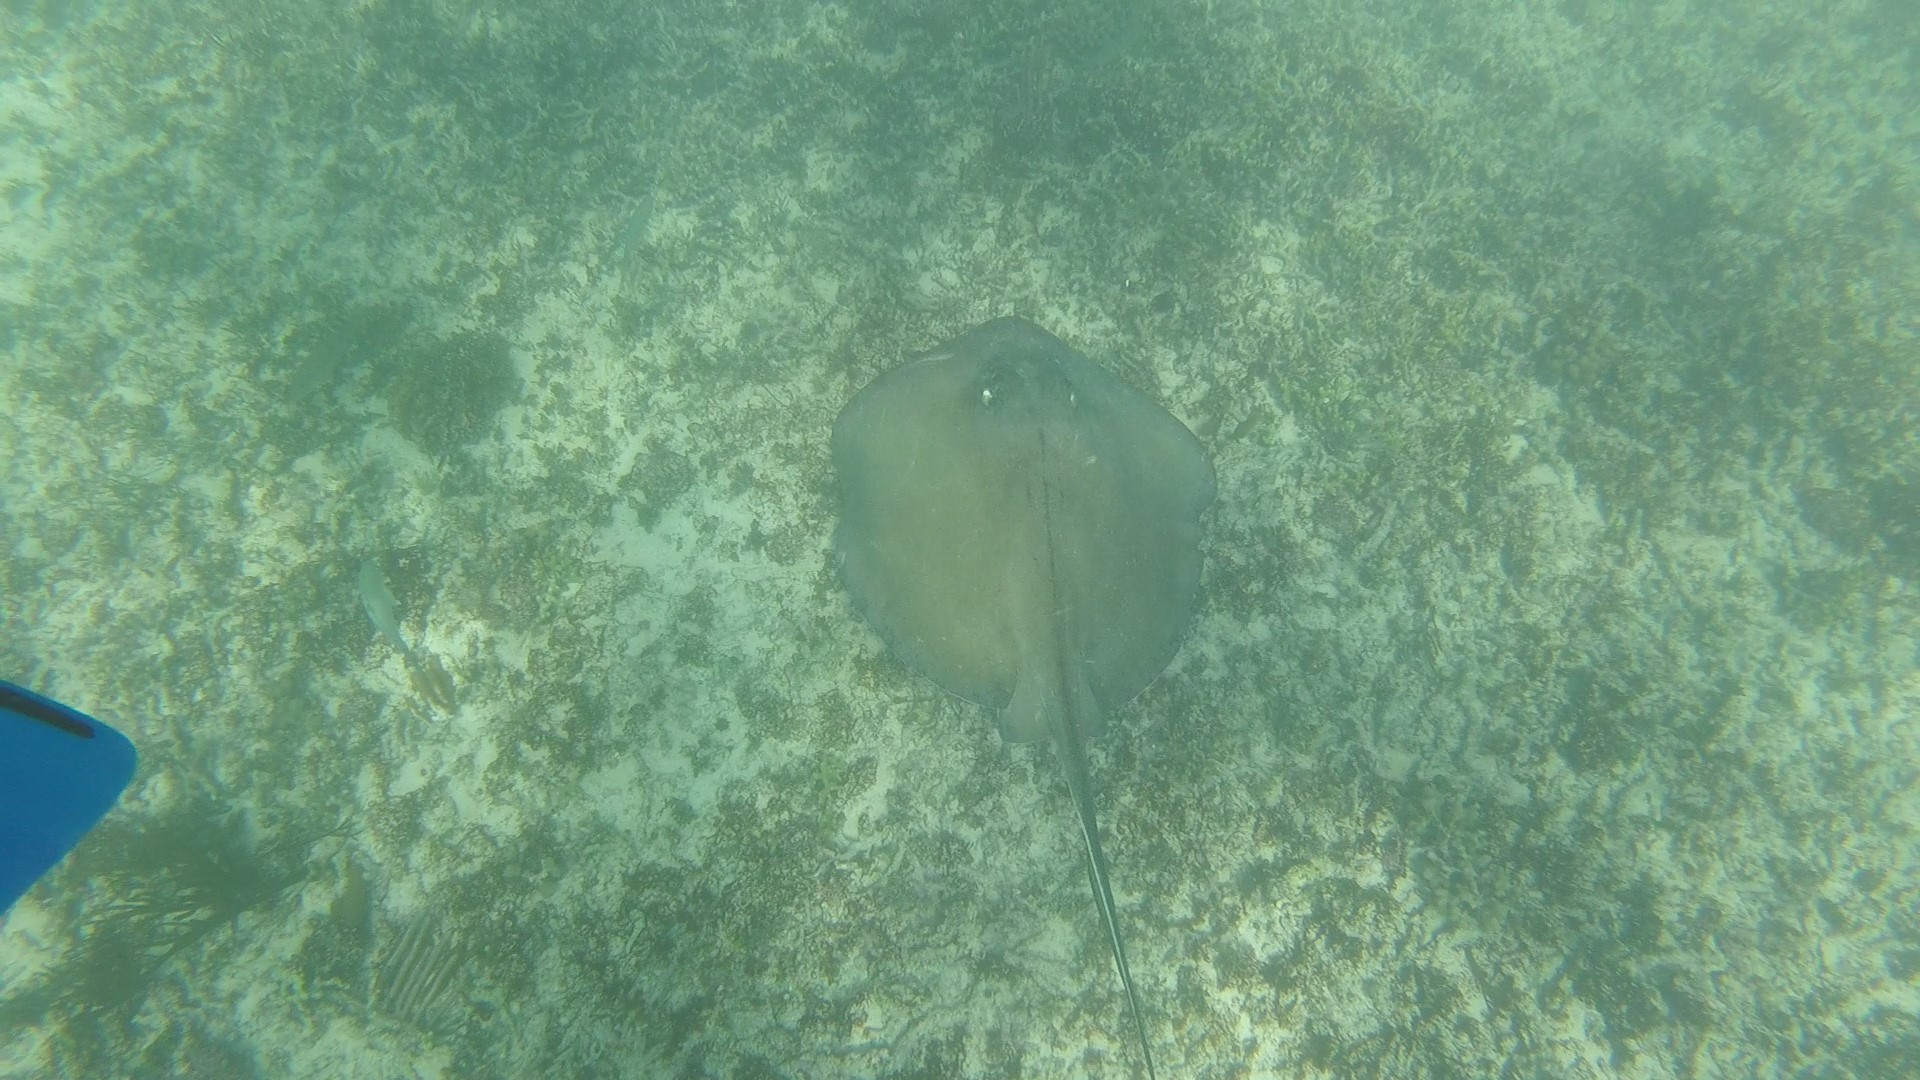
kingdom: Animalia
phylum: Chordata
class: Elasmobranchii
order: Myliobatiformes
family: Dasyatidae
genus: Hypanus
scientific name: Hypanus americanus
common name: Southern stingray
